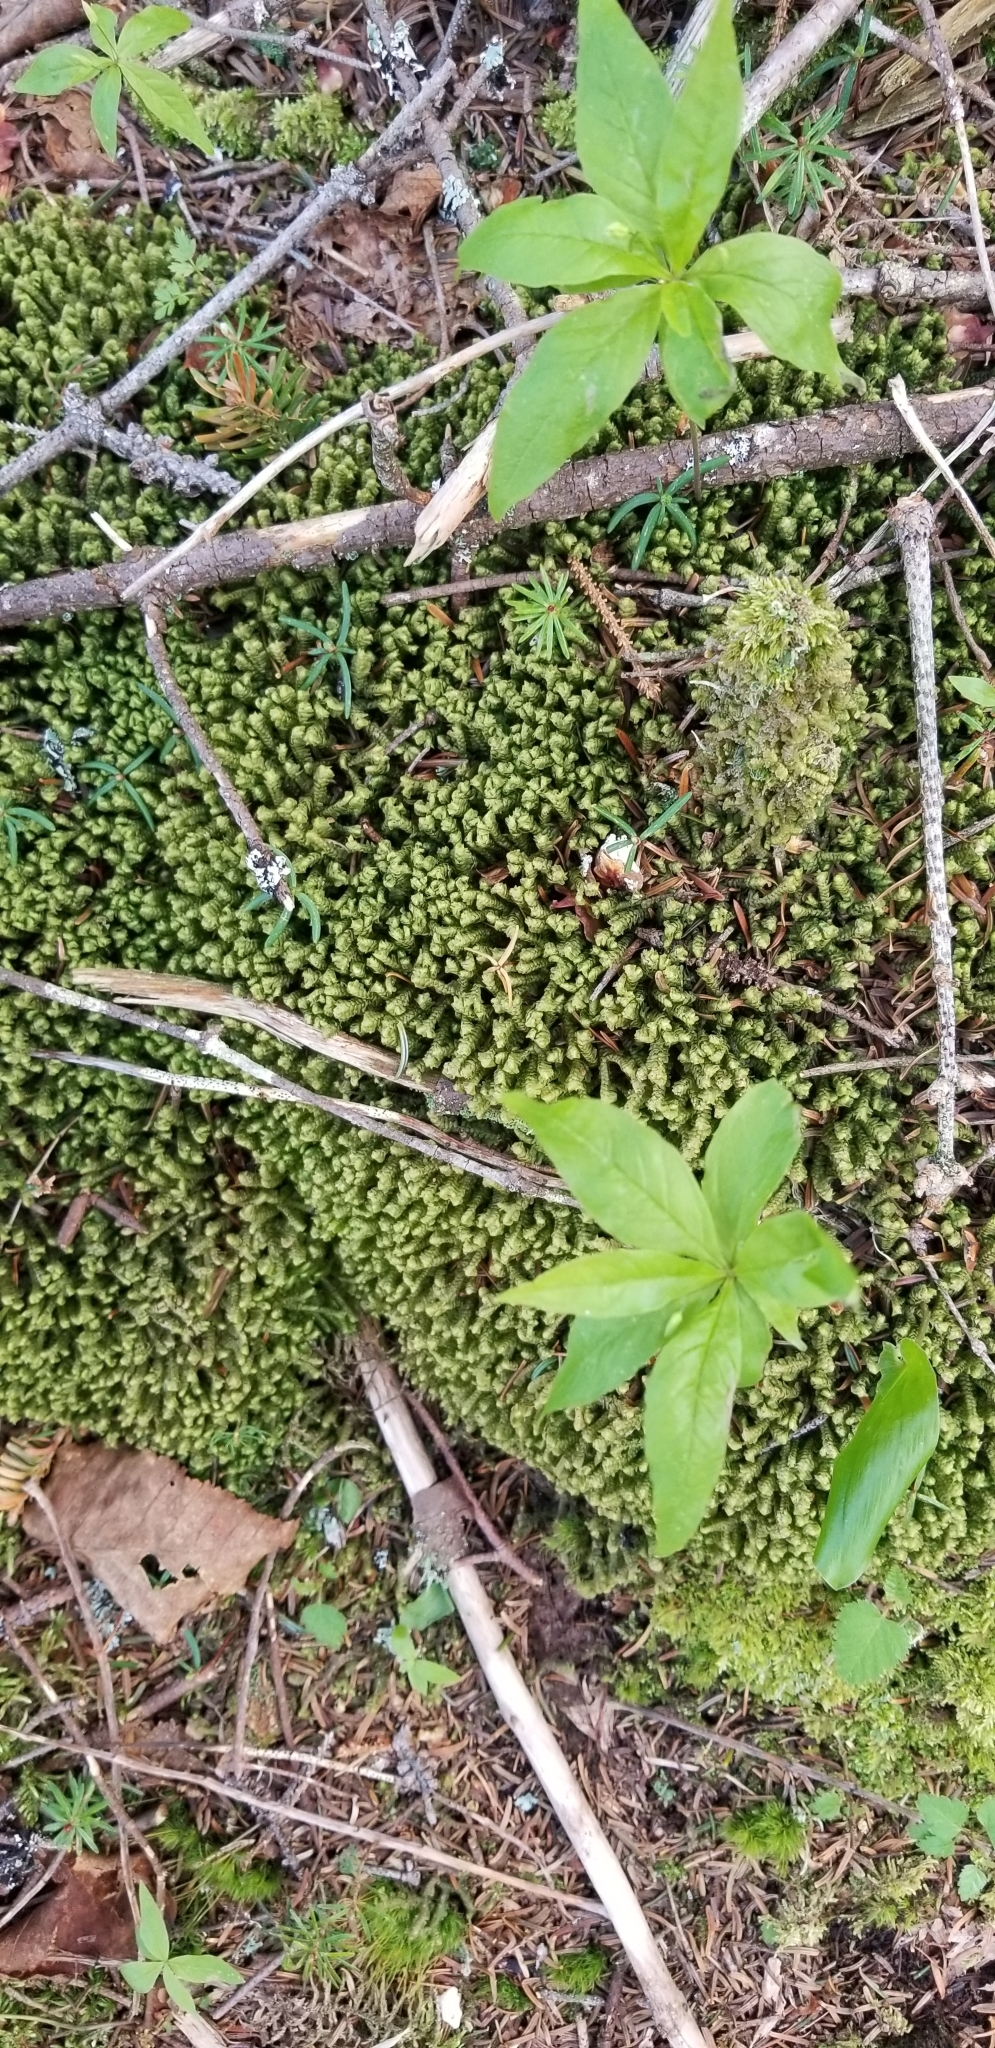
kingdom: Plantae
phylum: Marchantiophyta
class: Jungermanniopsida
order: Jungermanniales
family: Lepidoziaceae
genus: Bazzania
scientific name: Bazzania trilobata
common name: Three-lobed whipwort
